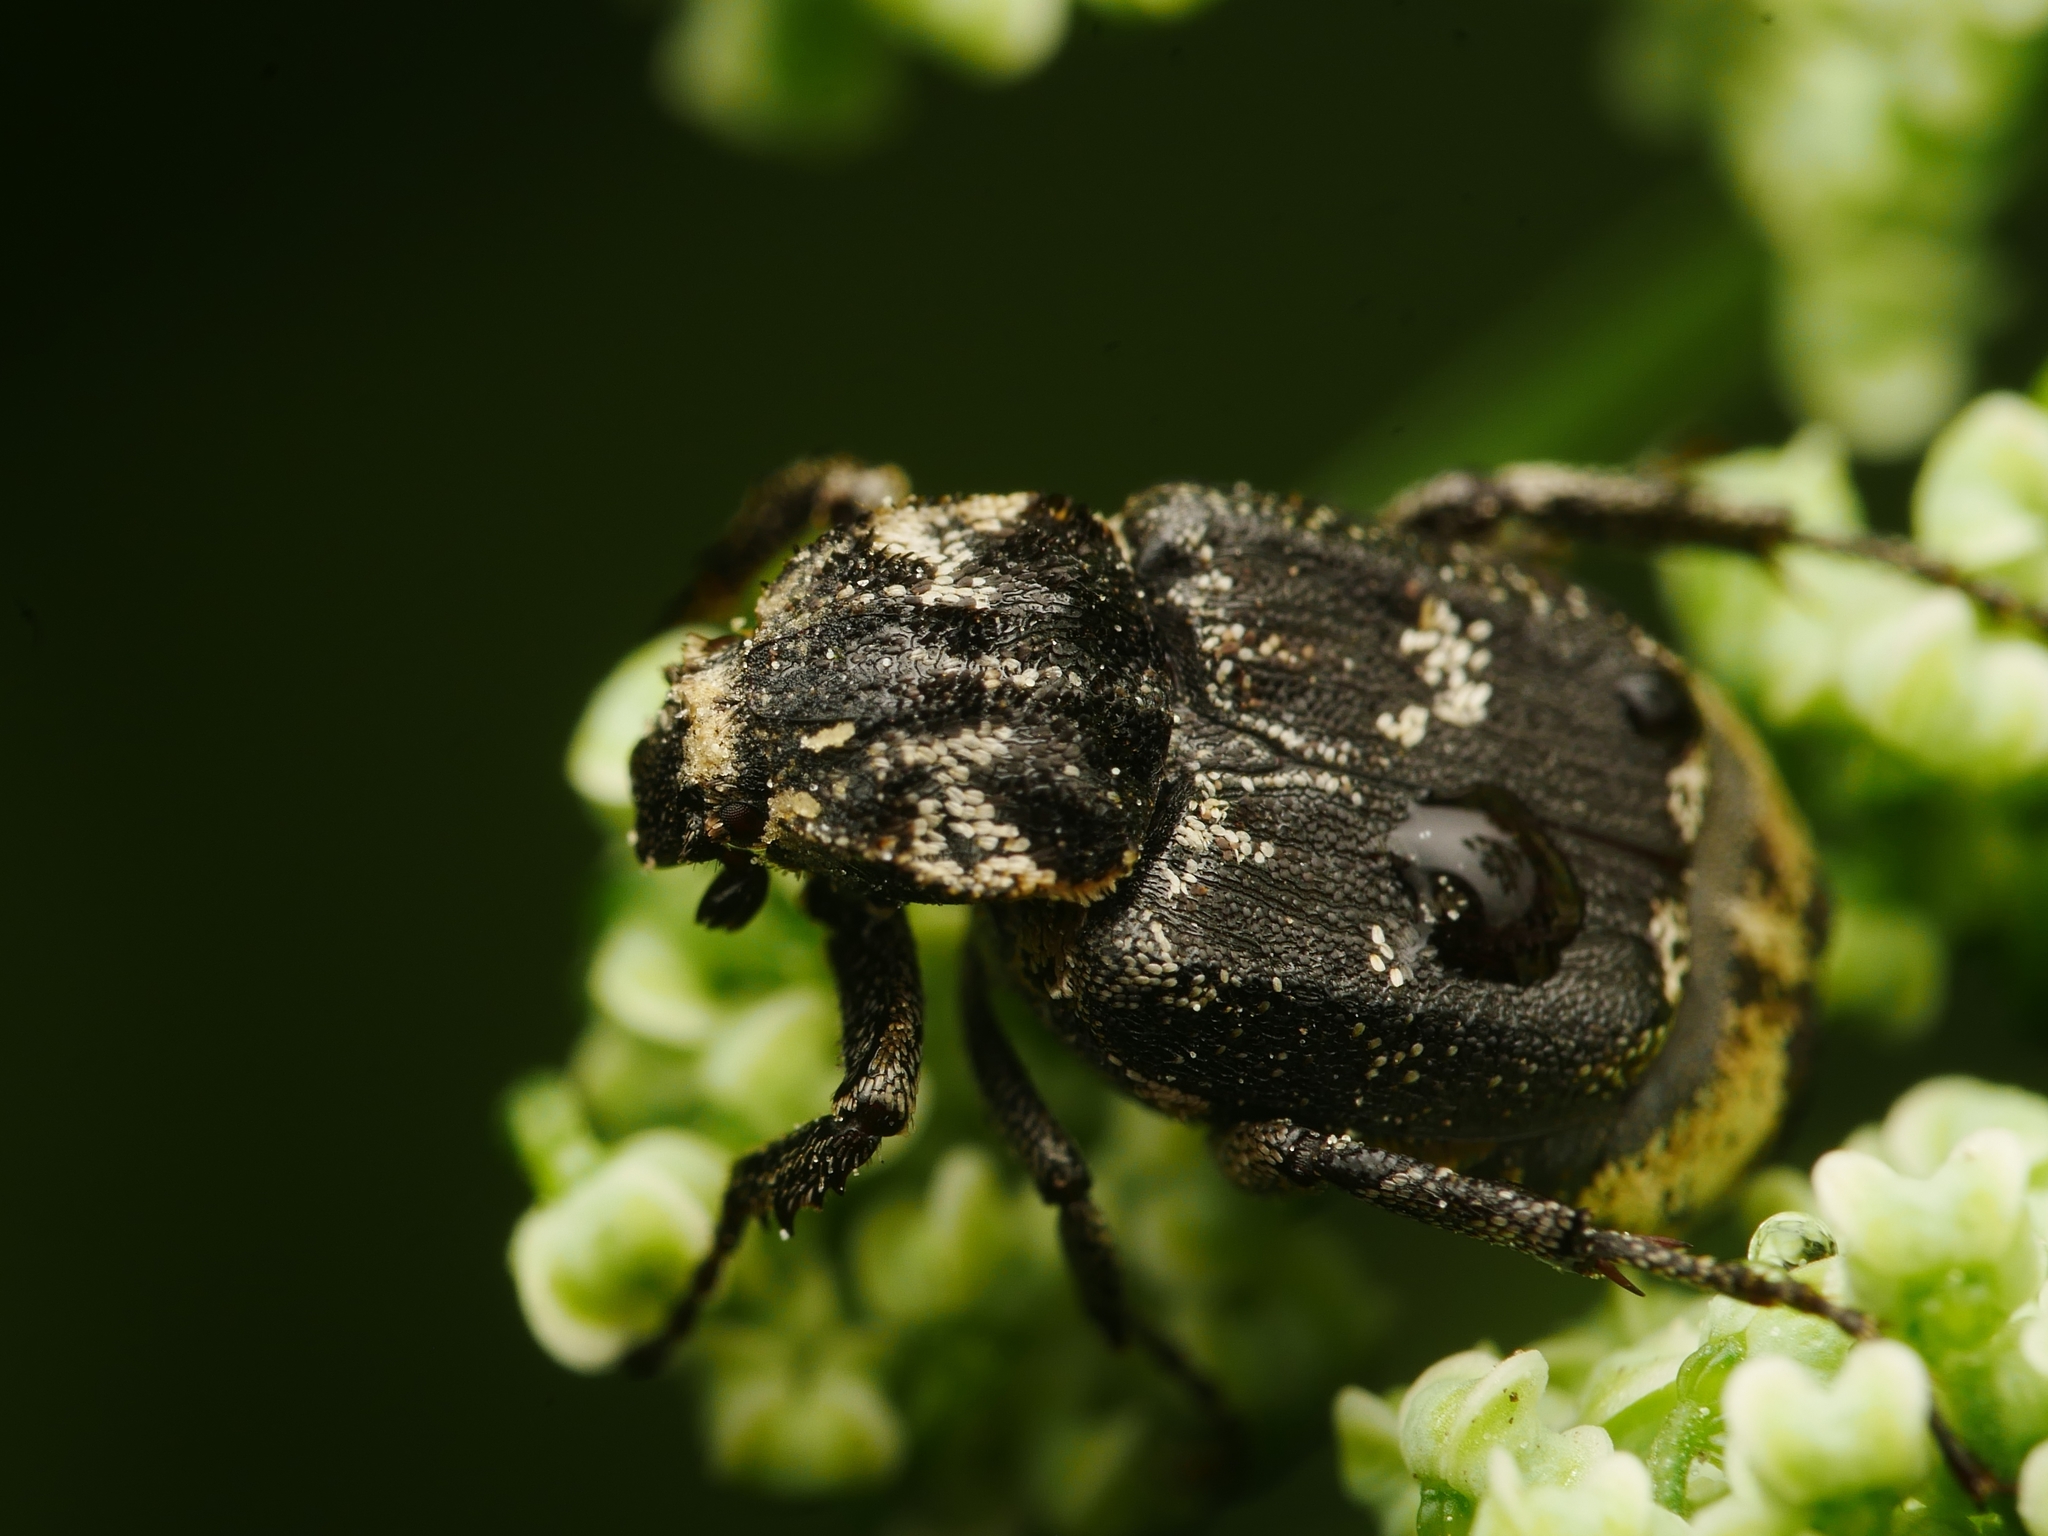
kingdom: Animalia
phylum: Arthropoda
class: Insecta
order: Coleoptera
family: Scarabaeidae
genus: Valgus
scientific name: Valgus hemipterus
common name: Bug flower chafer
